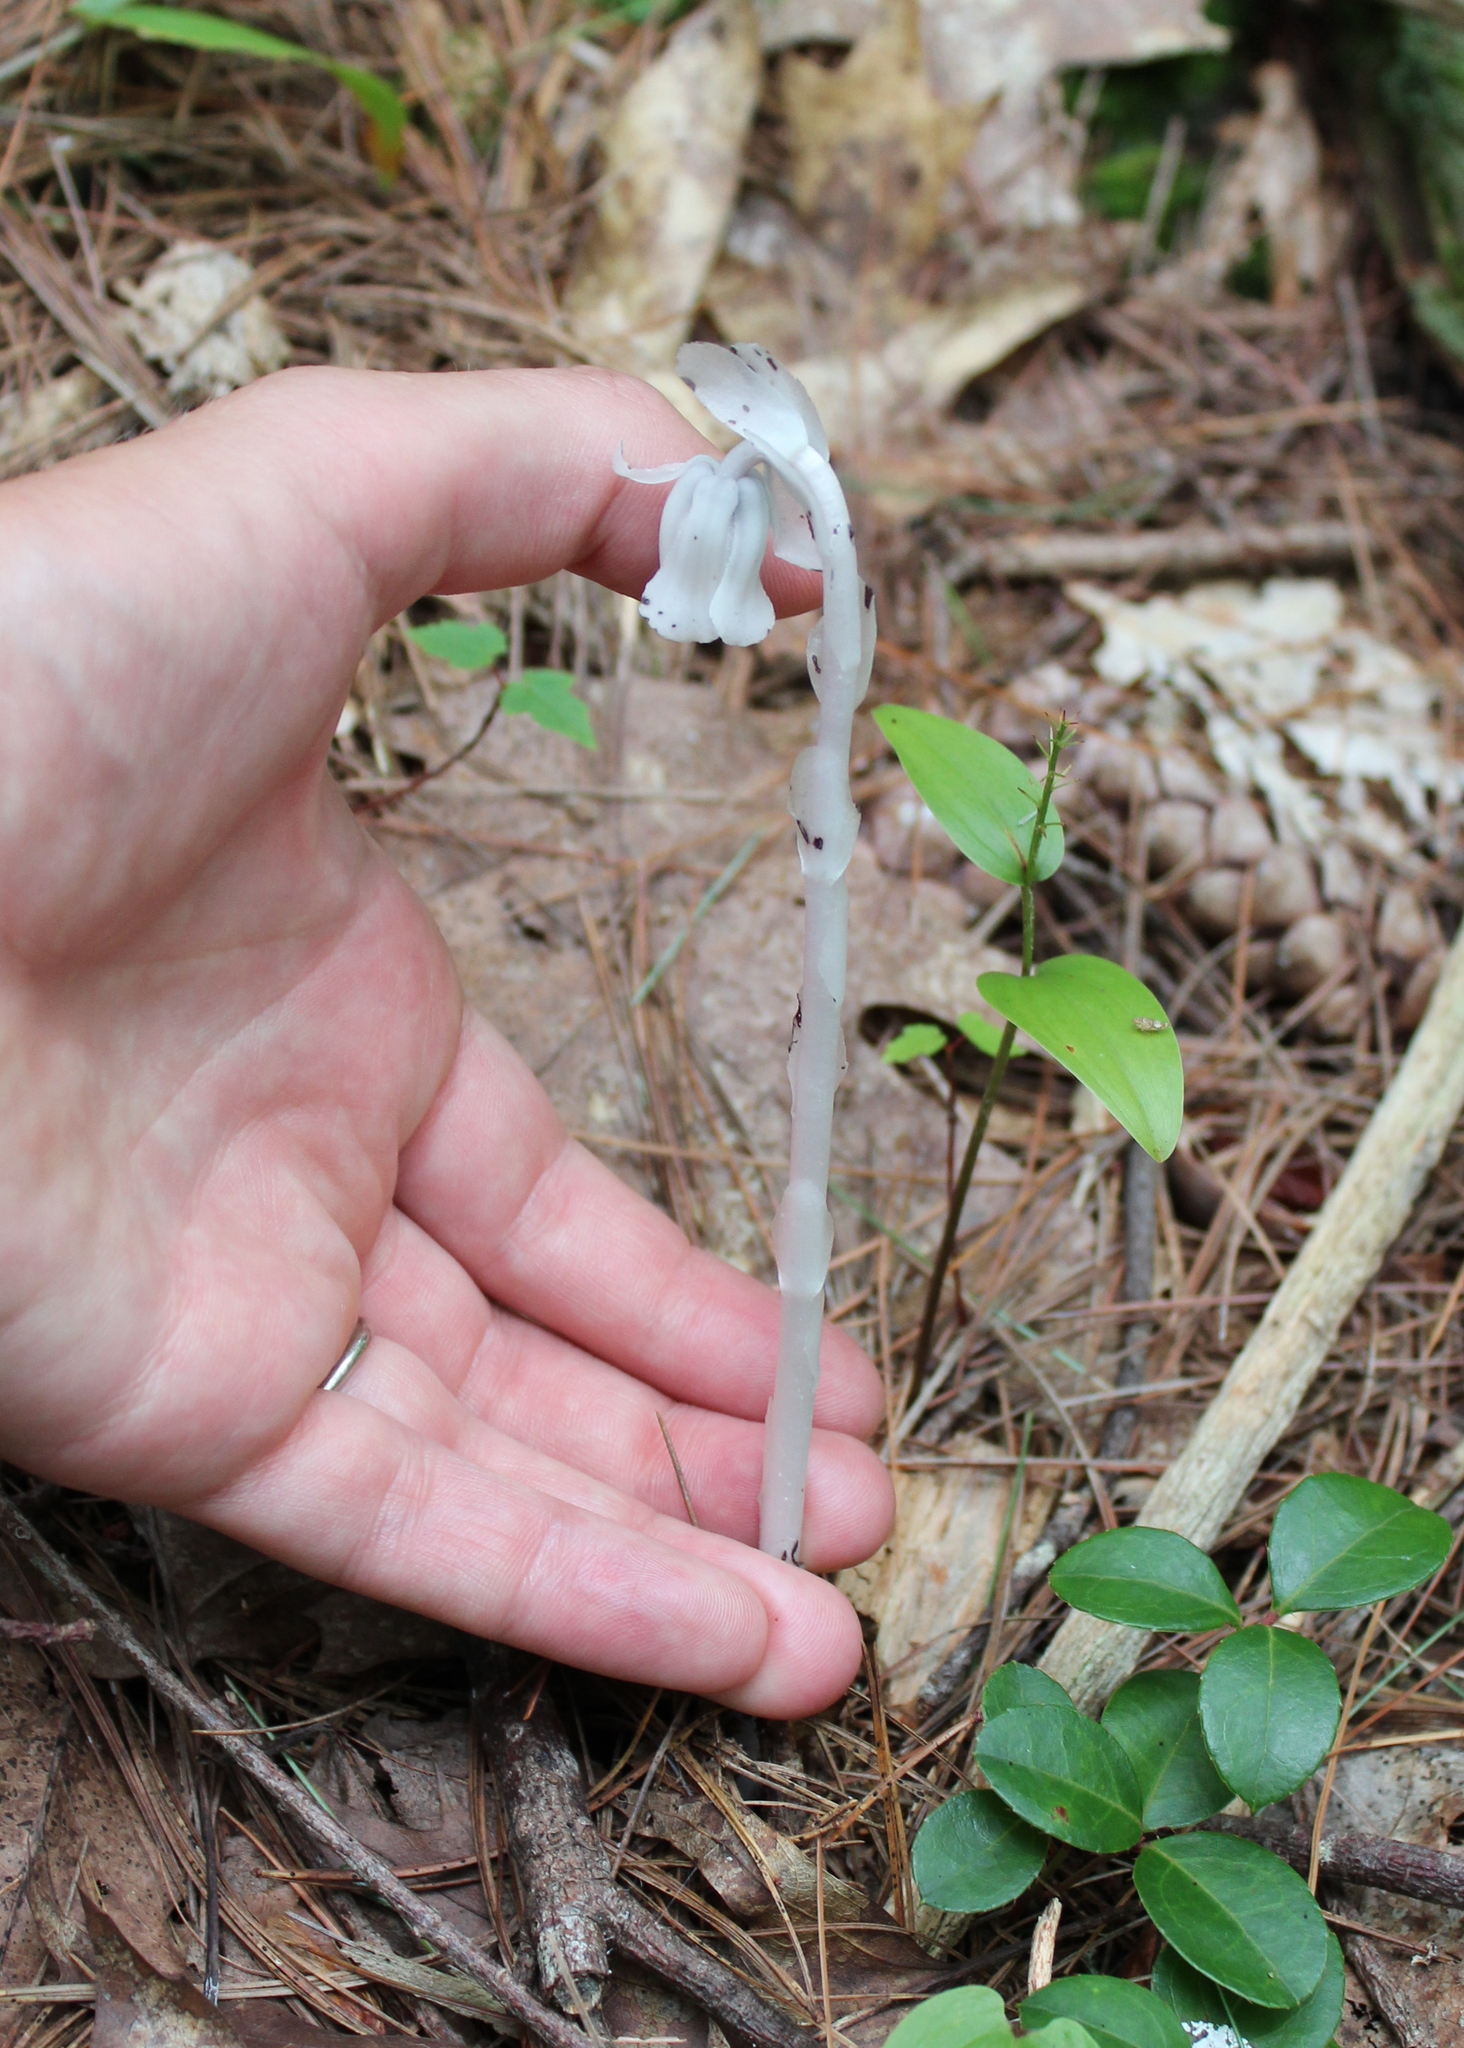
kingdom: Plantae
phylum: Tracheophyta
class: Magnoliopsida
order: Ericales
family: Ericaceae
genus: Monotropa
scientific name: Monotropa uniflora
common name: Convulsion root
